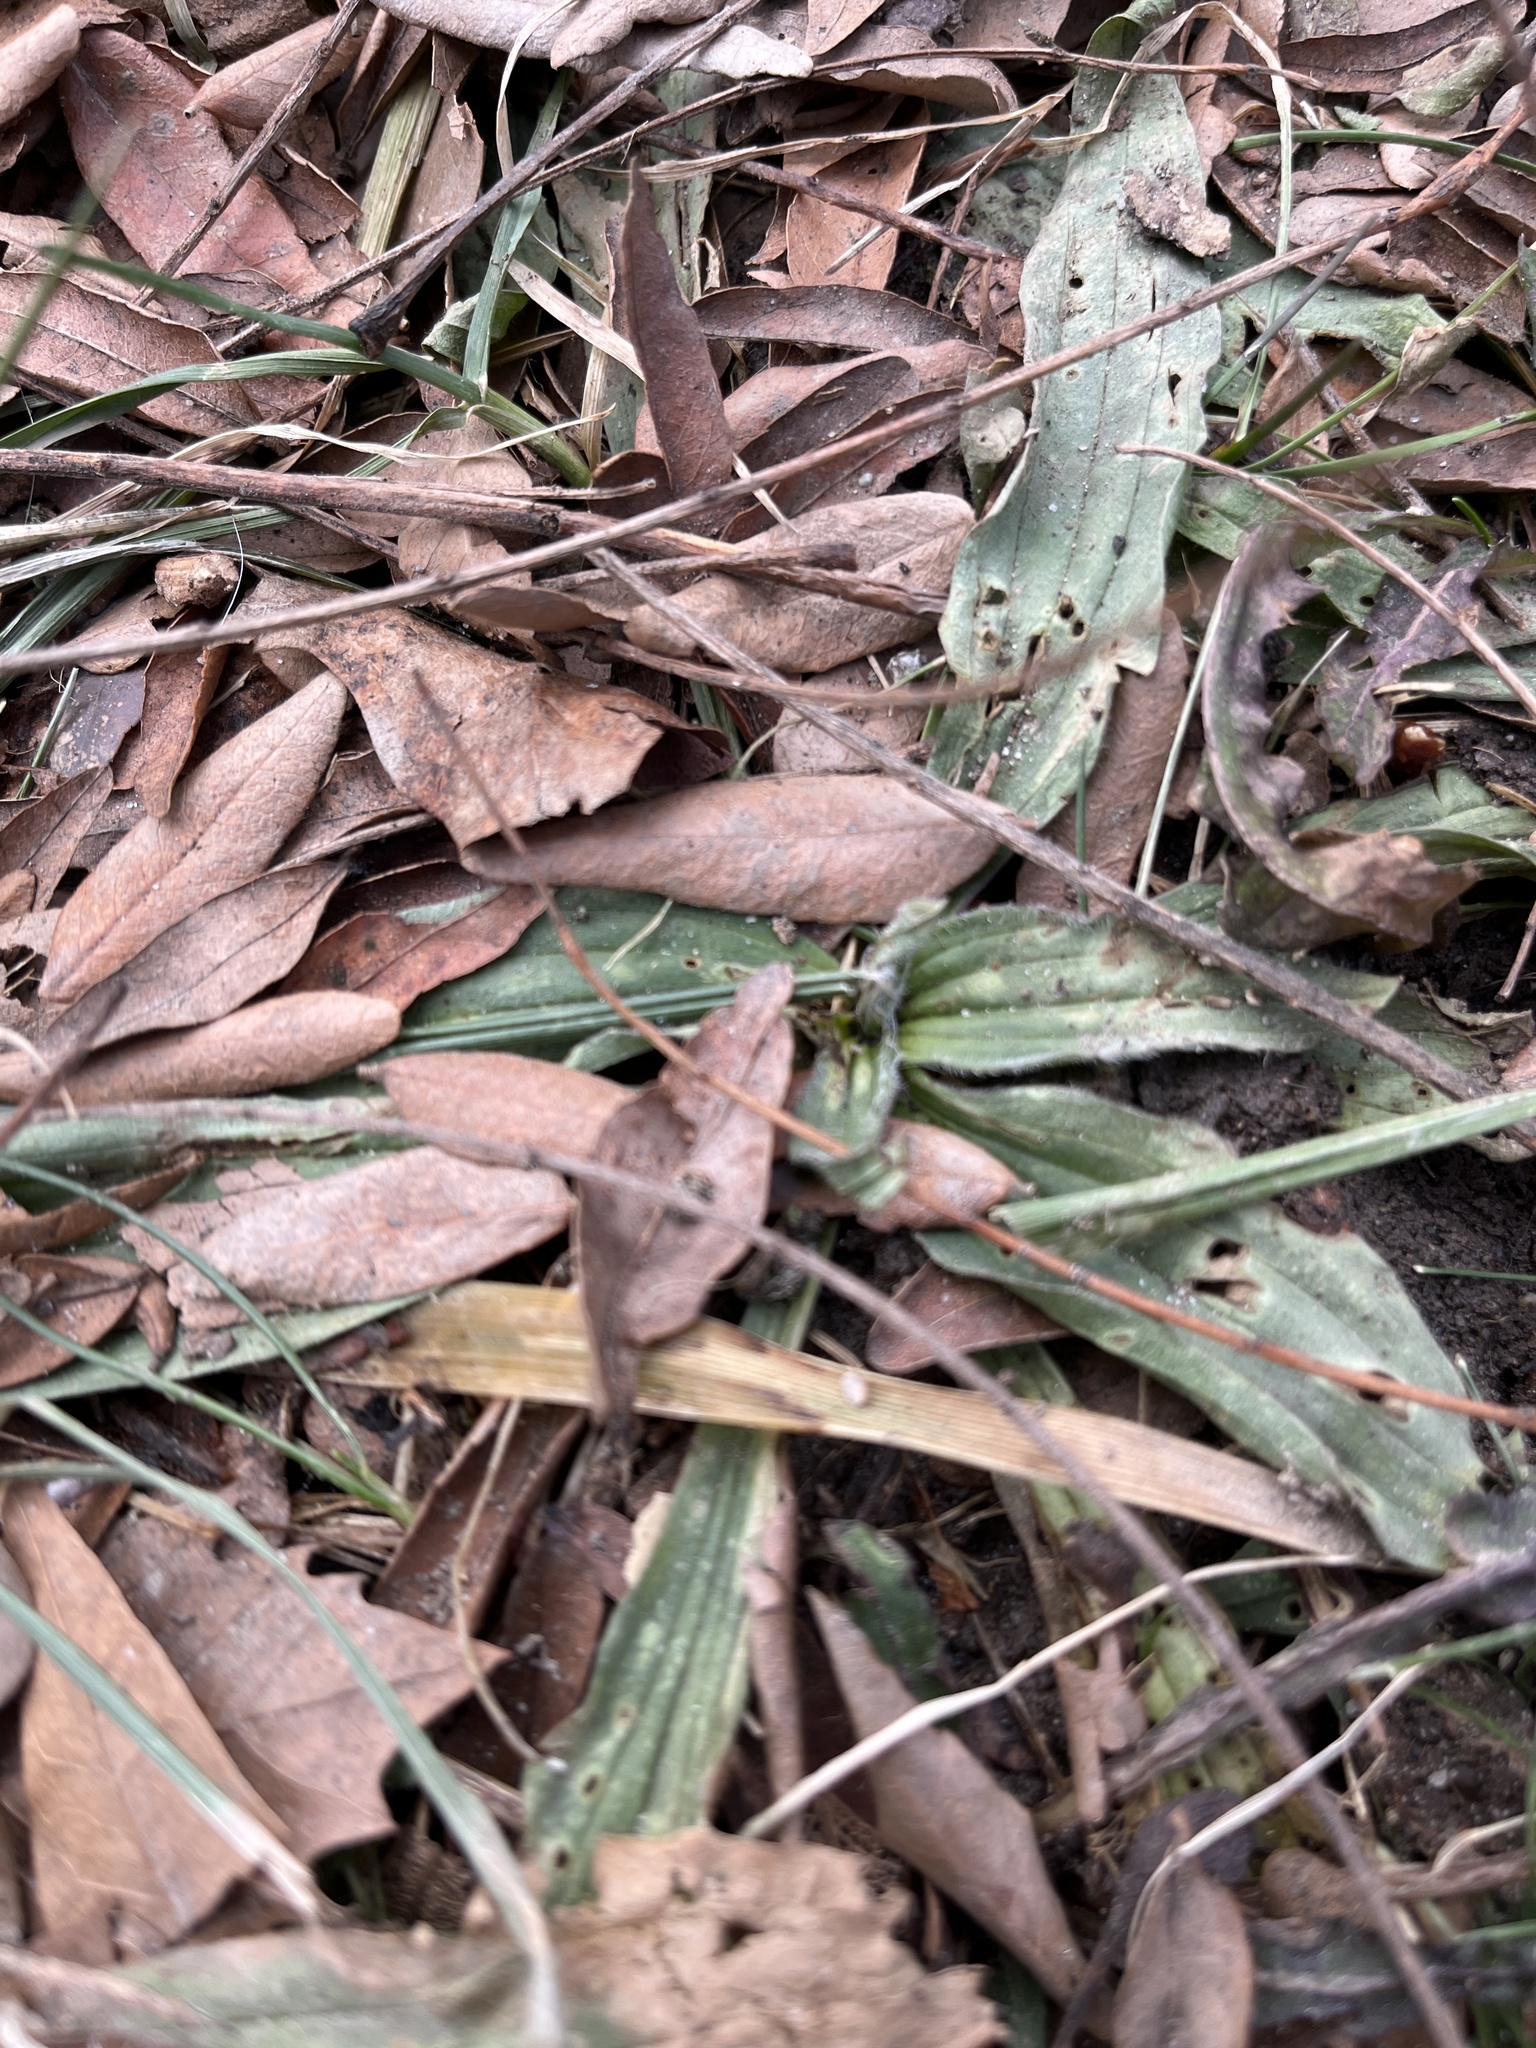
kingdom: Plantae
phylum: Tracheophyta
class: Magnoliopsida
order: Lamiales
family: Plantaginaceae
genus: Plantago
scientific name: Plantago lanceolata
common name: Ribwort plantain
